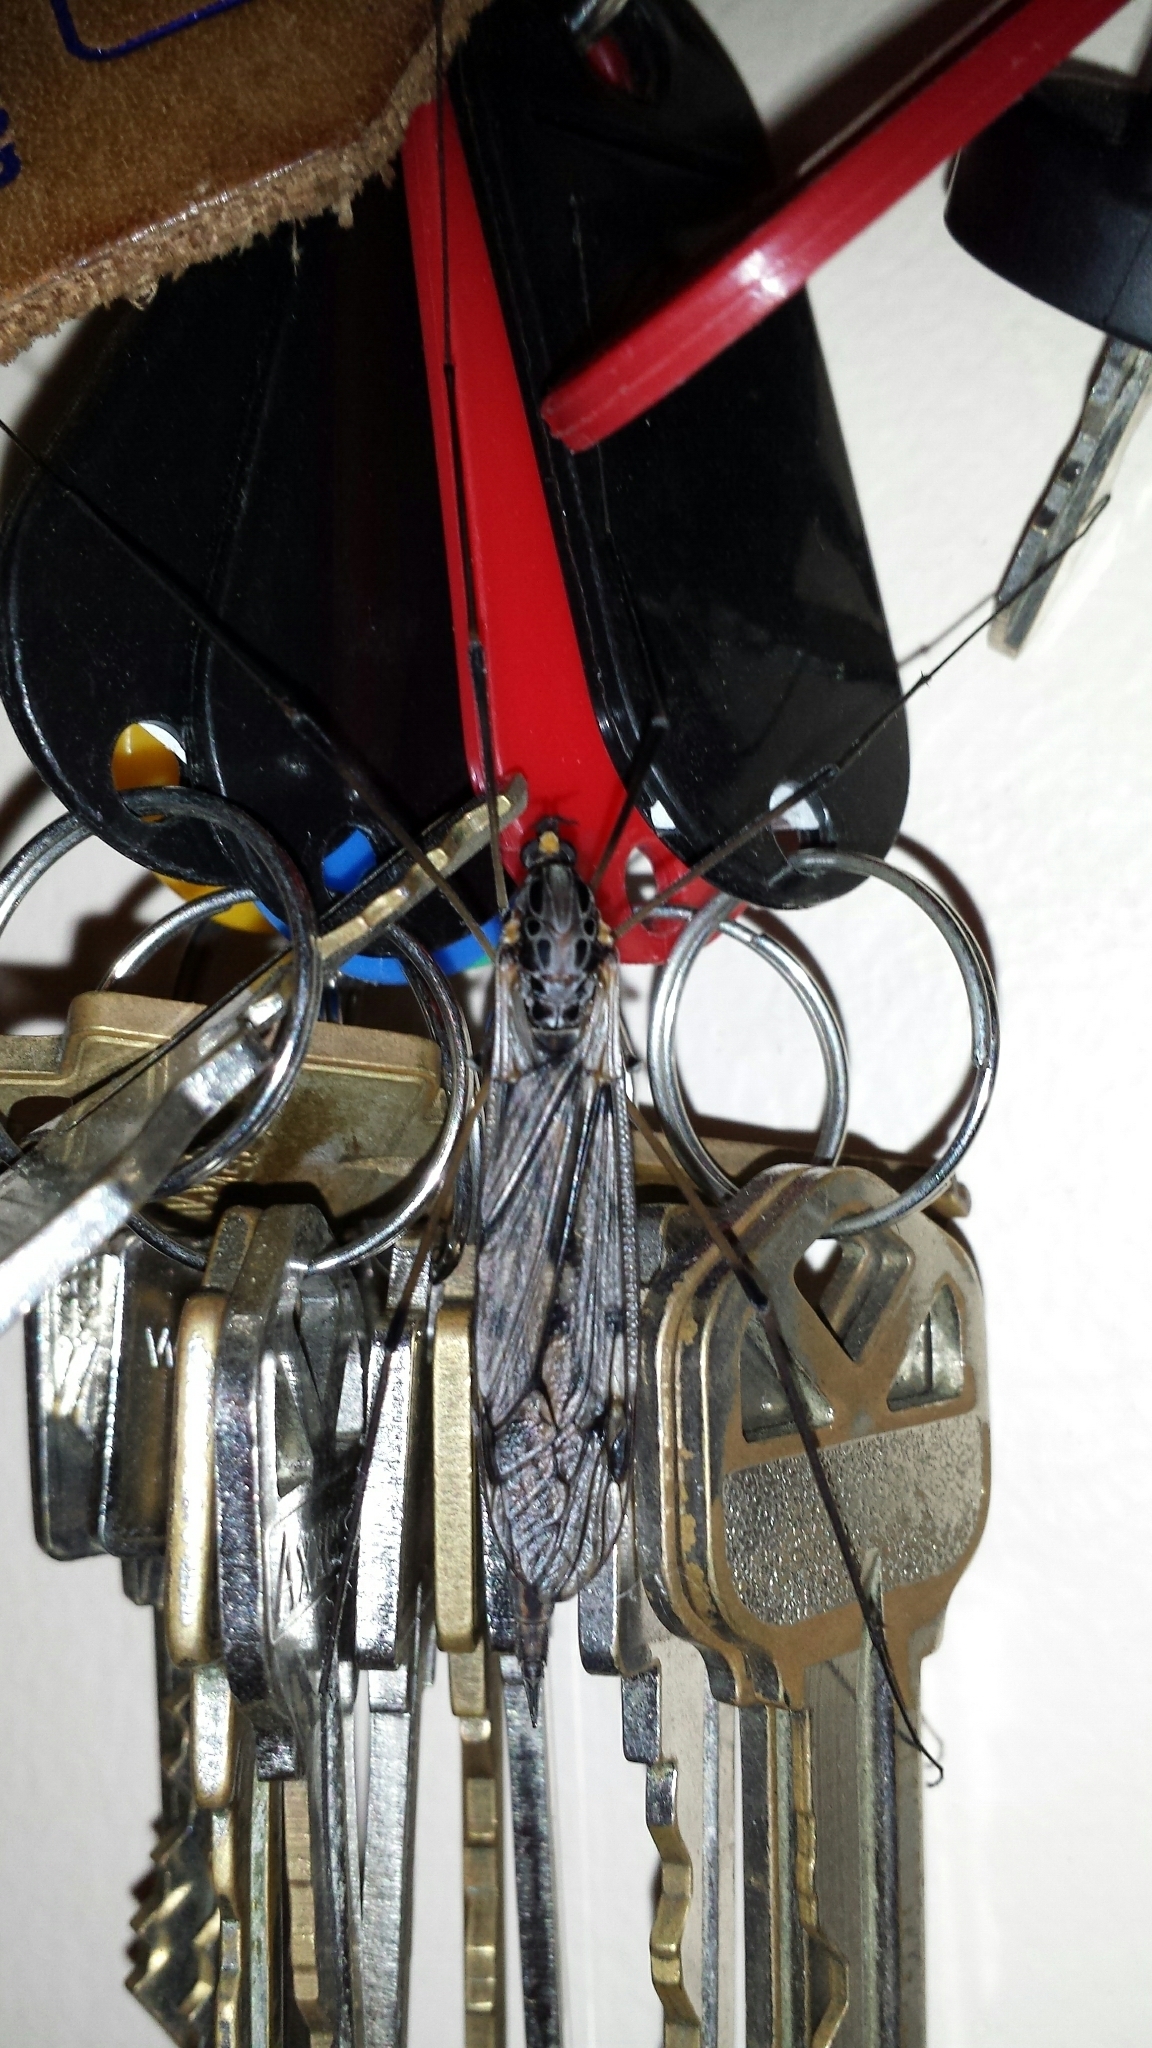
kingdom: Animalia
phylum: Arthropoda
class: Insecta
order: Diptera
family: Tipulidae
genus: Tipula
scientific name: Tipula metacomet
